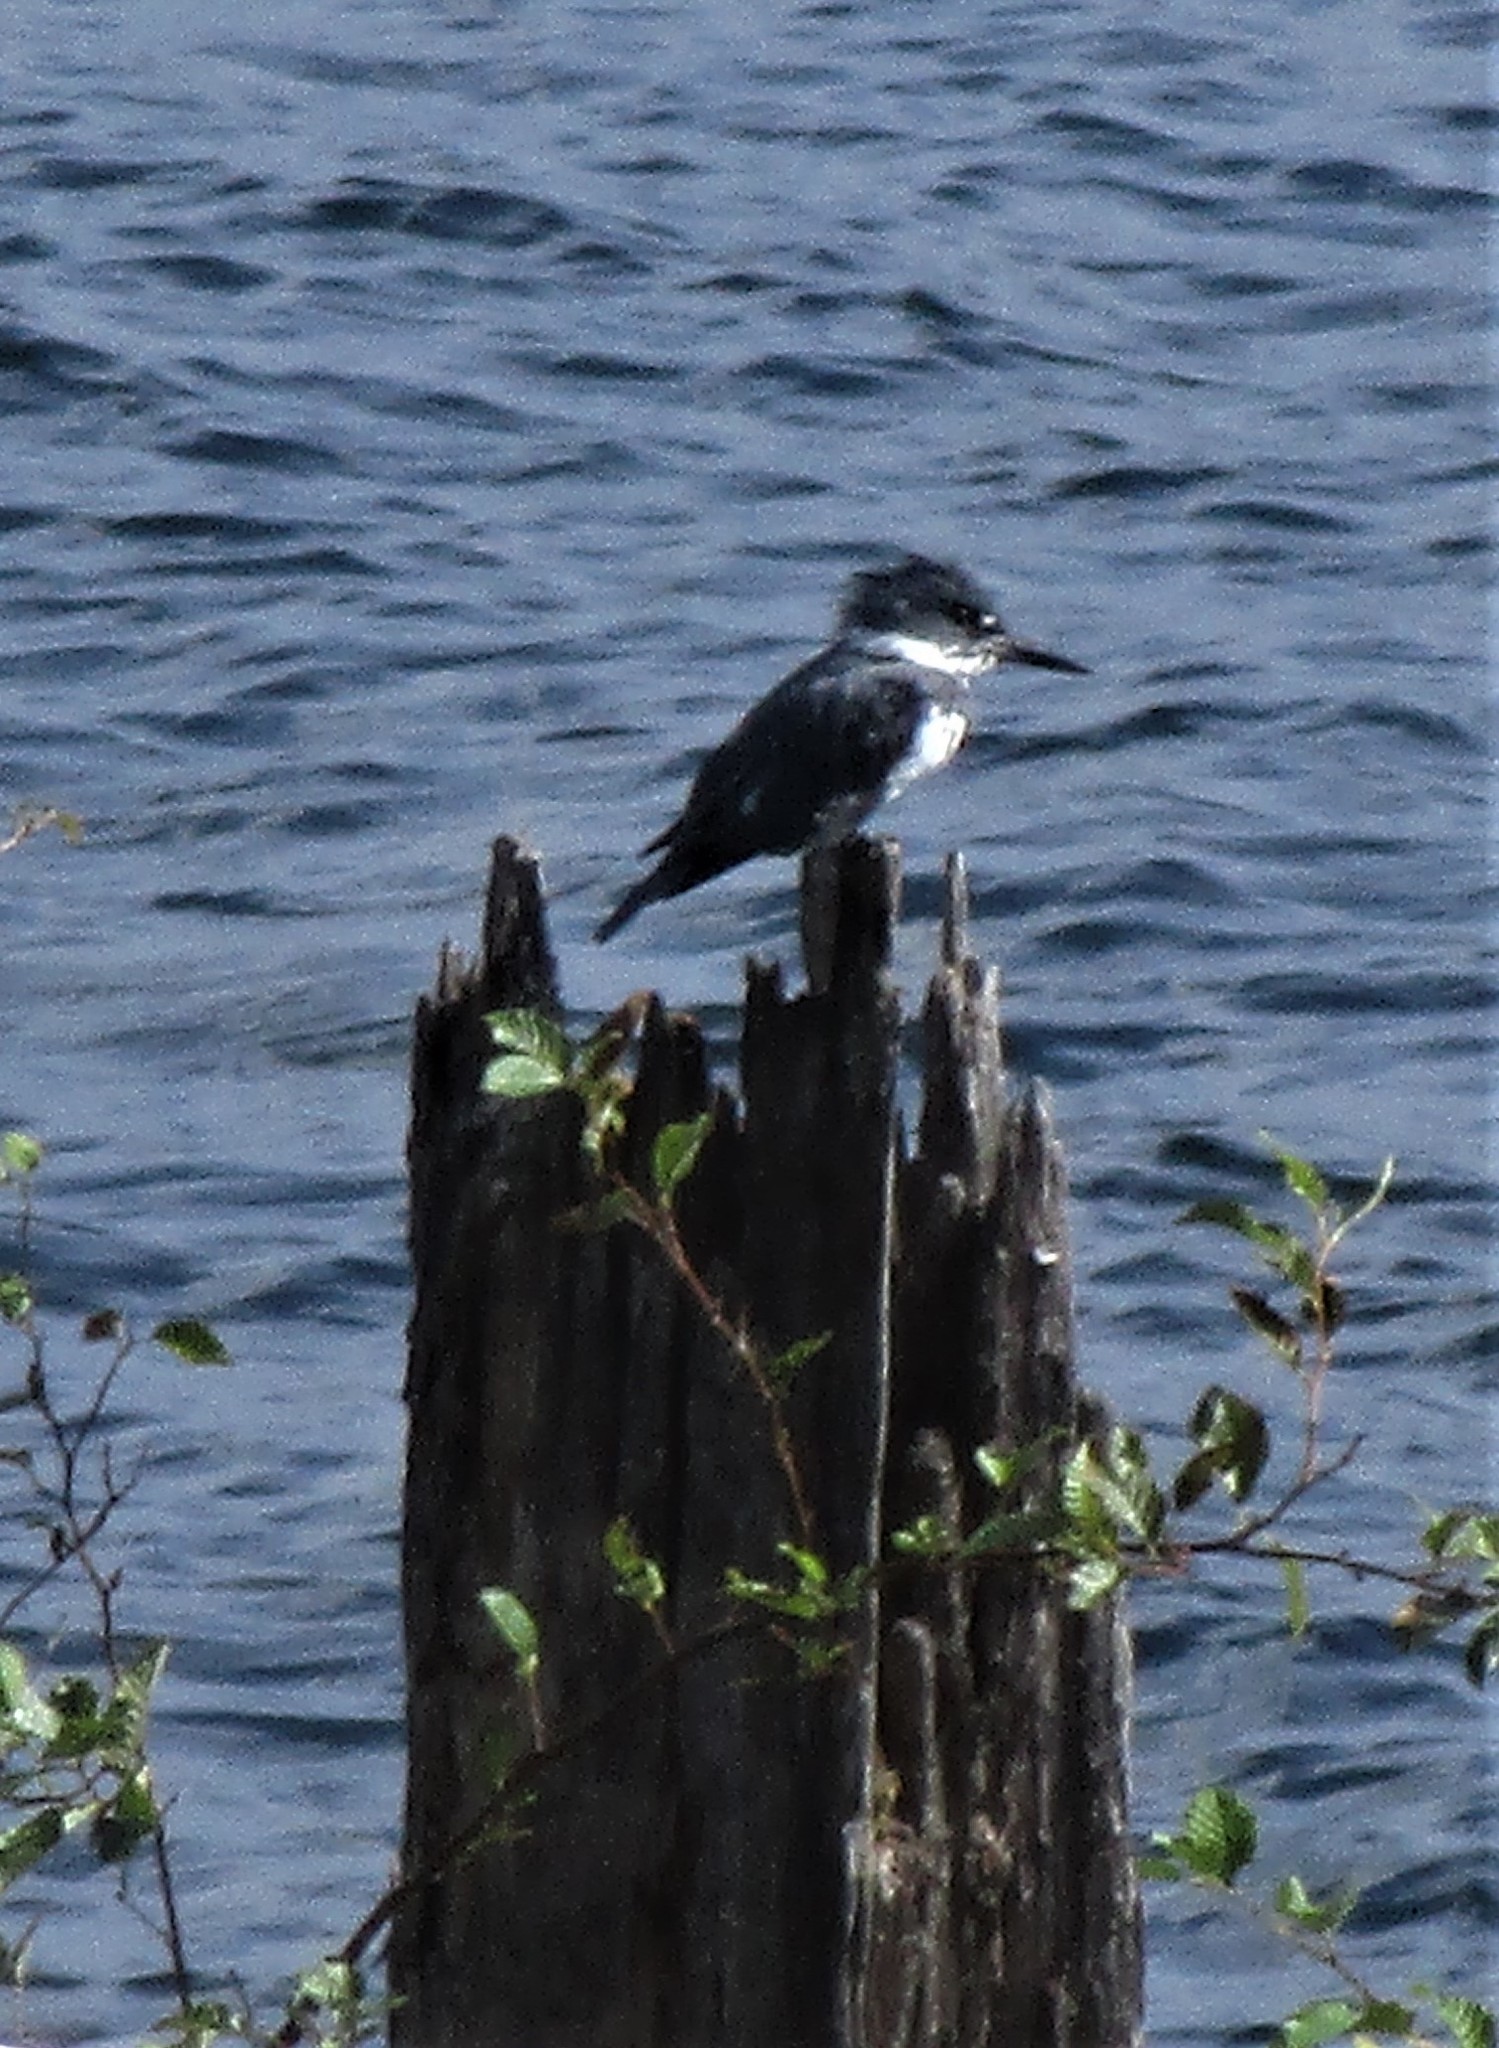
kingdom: Animalia
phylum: Chordata
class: Aves
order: Coraciiformes
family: Alcedinidae
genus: Megaceryle
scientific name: Megaceryle alcyon
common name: Belted kingfisher
